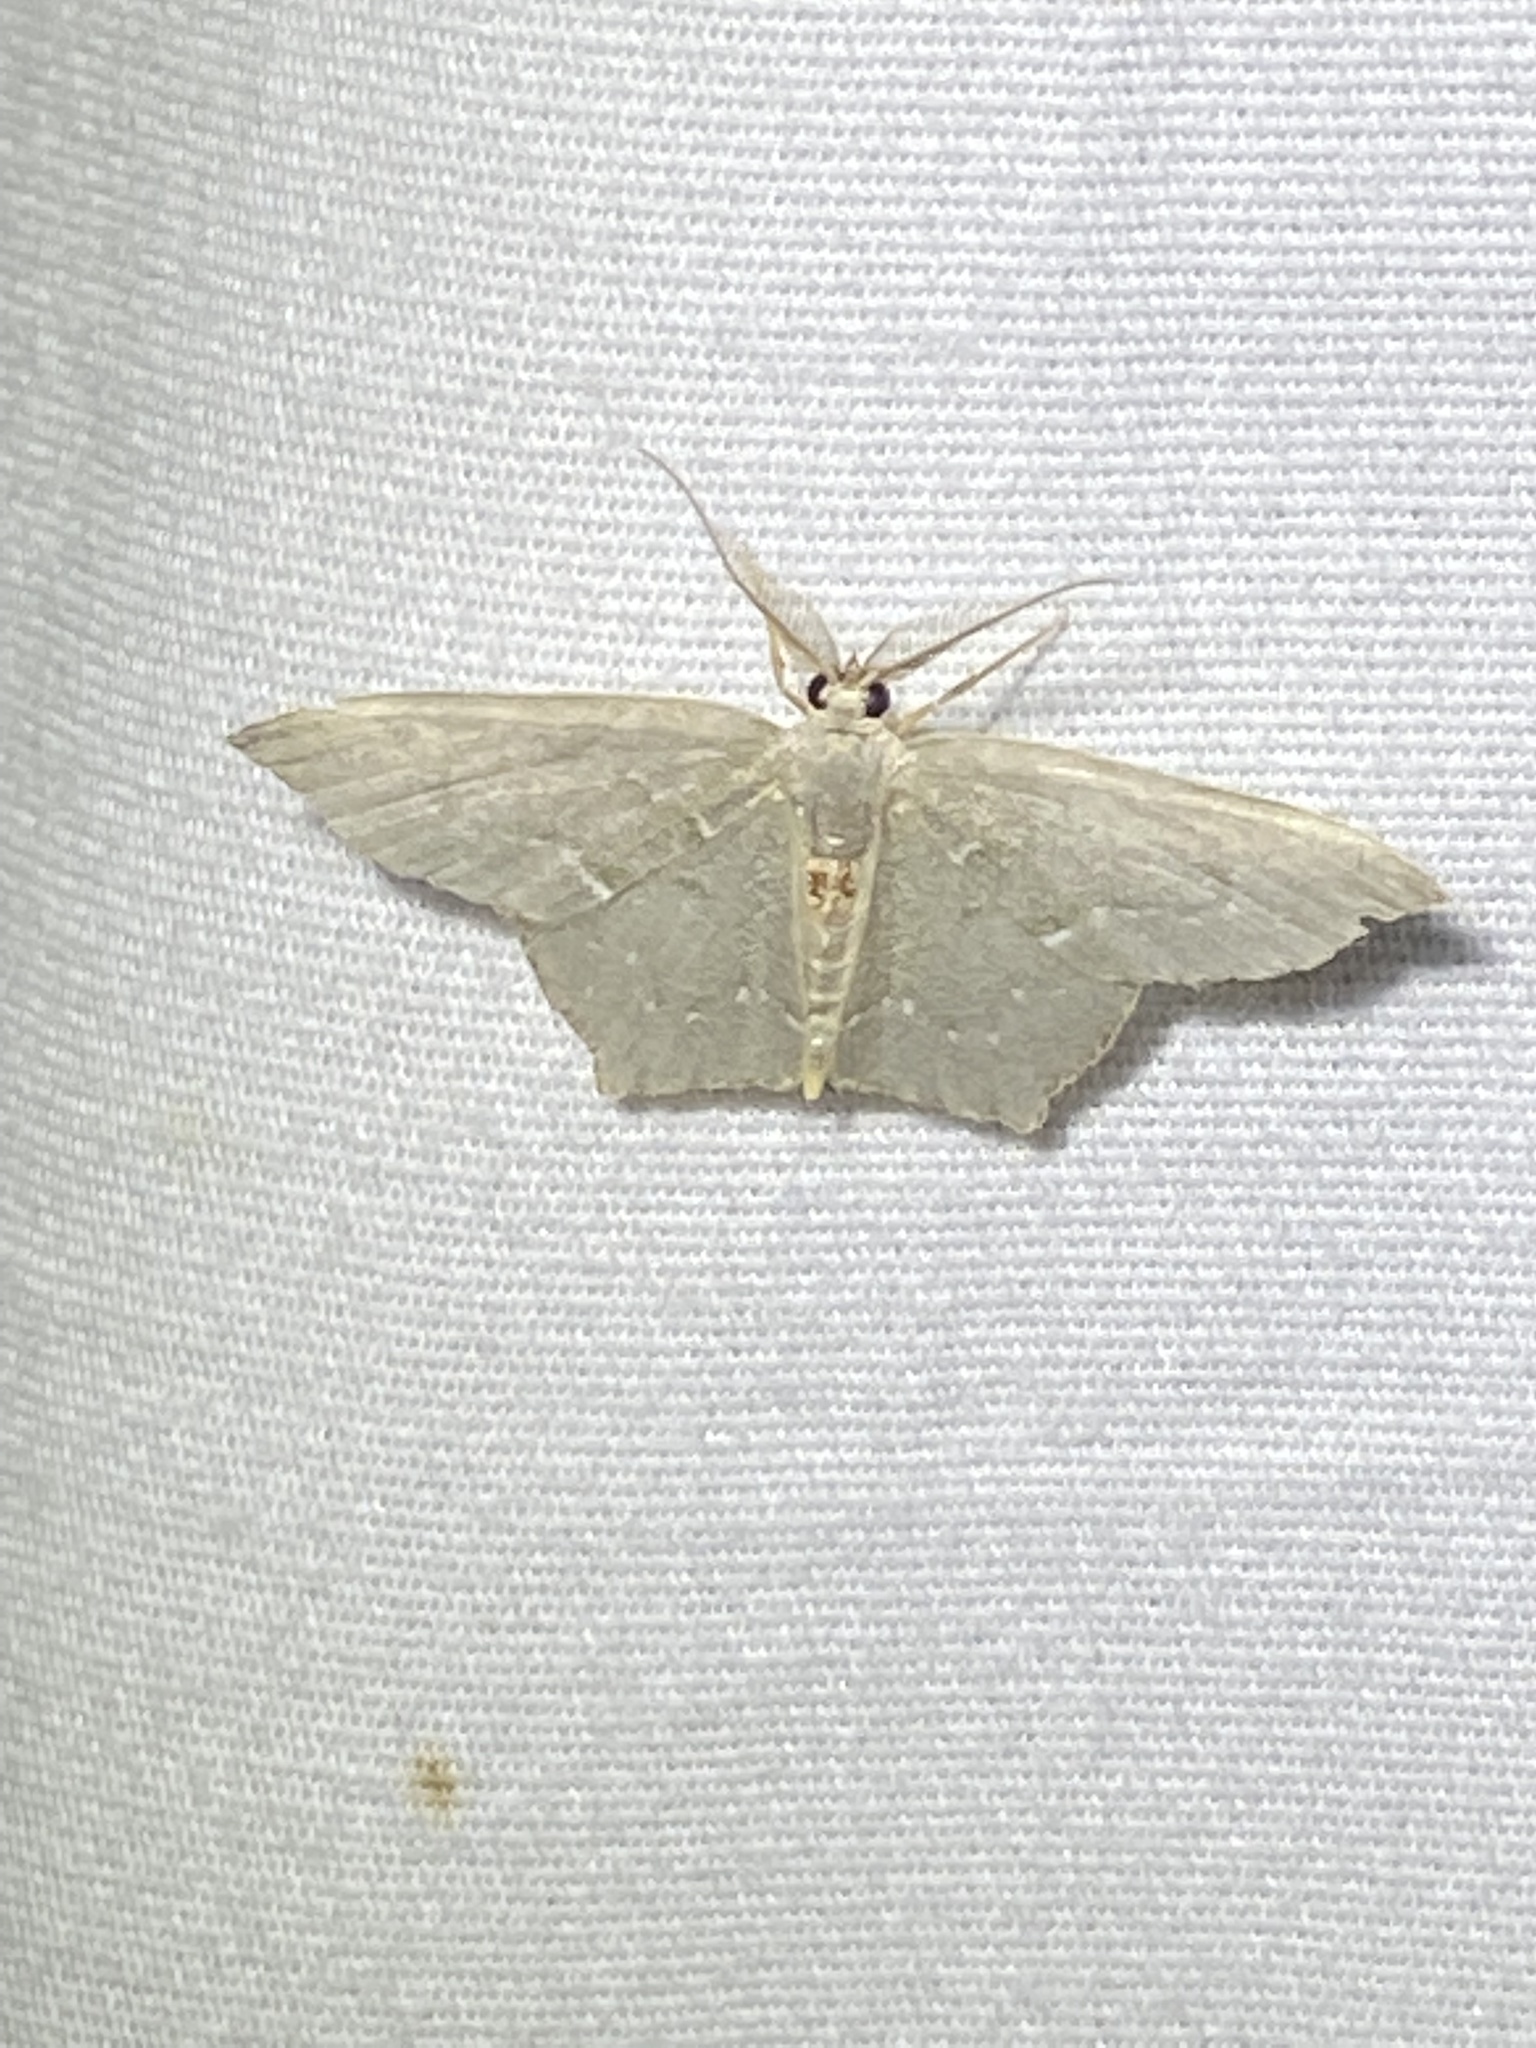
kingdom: Animalia
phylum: Arthropoda
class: Insecta
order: Lepidoptera
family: Geometridae
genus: Chloropteryx
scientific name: Chloropteryx tepperaria
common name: Angle winged emerald moth
